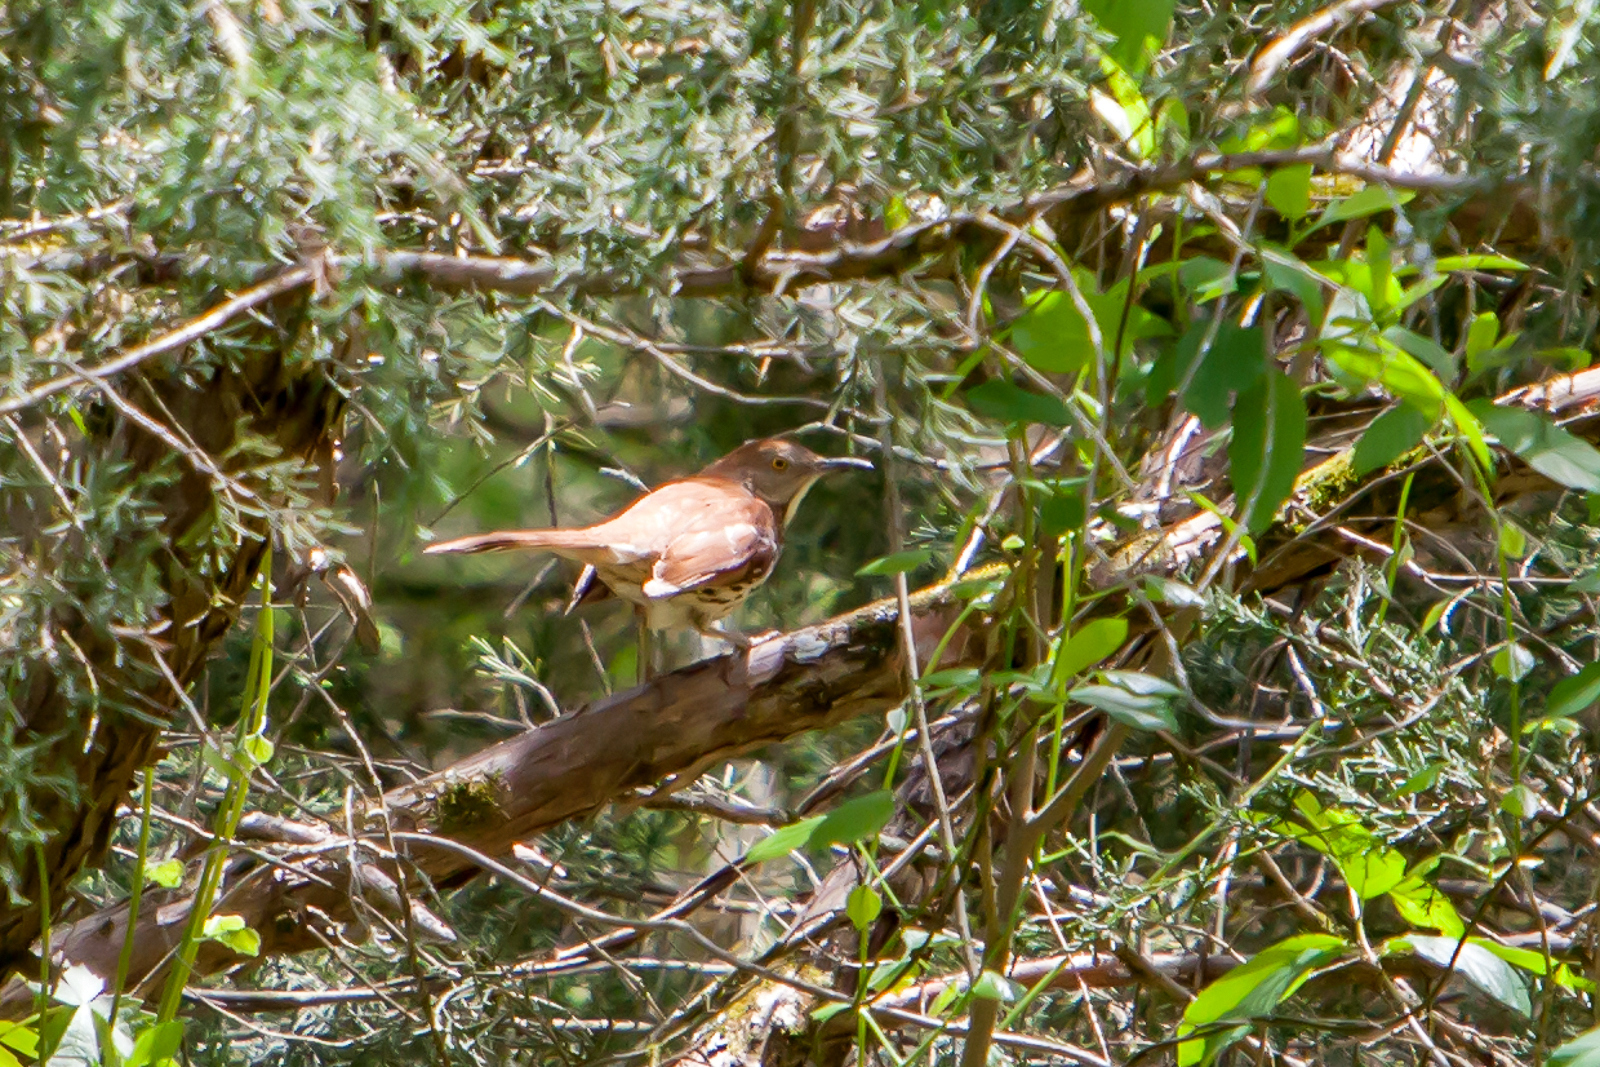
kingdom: Animalia
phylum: Chordata
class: Aves
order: Passeriformes
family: Mimidae
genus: Toxostoma
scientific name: Toxostoma rufum
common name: Brown thrasher
